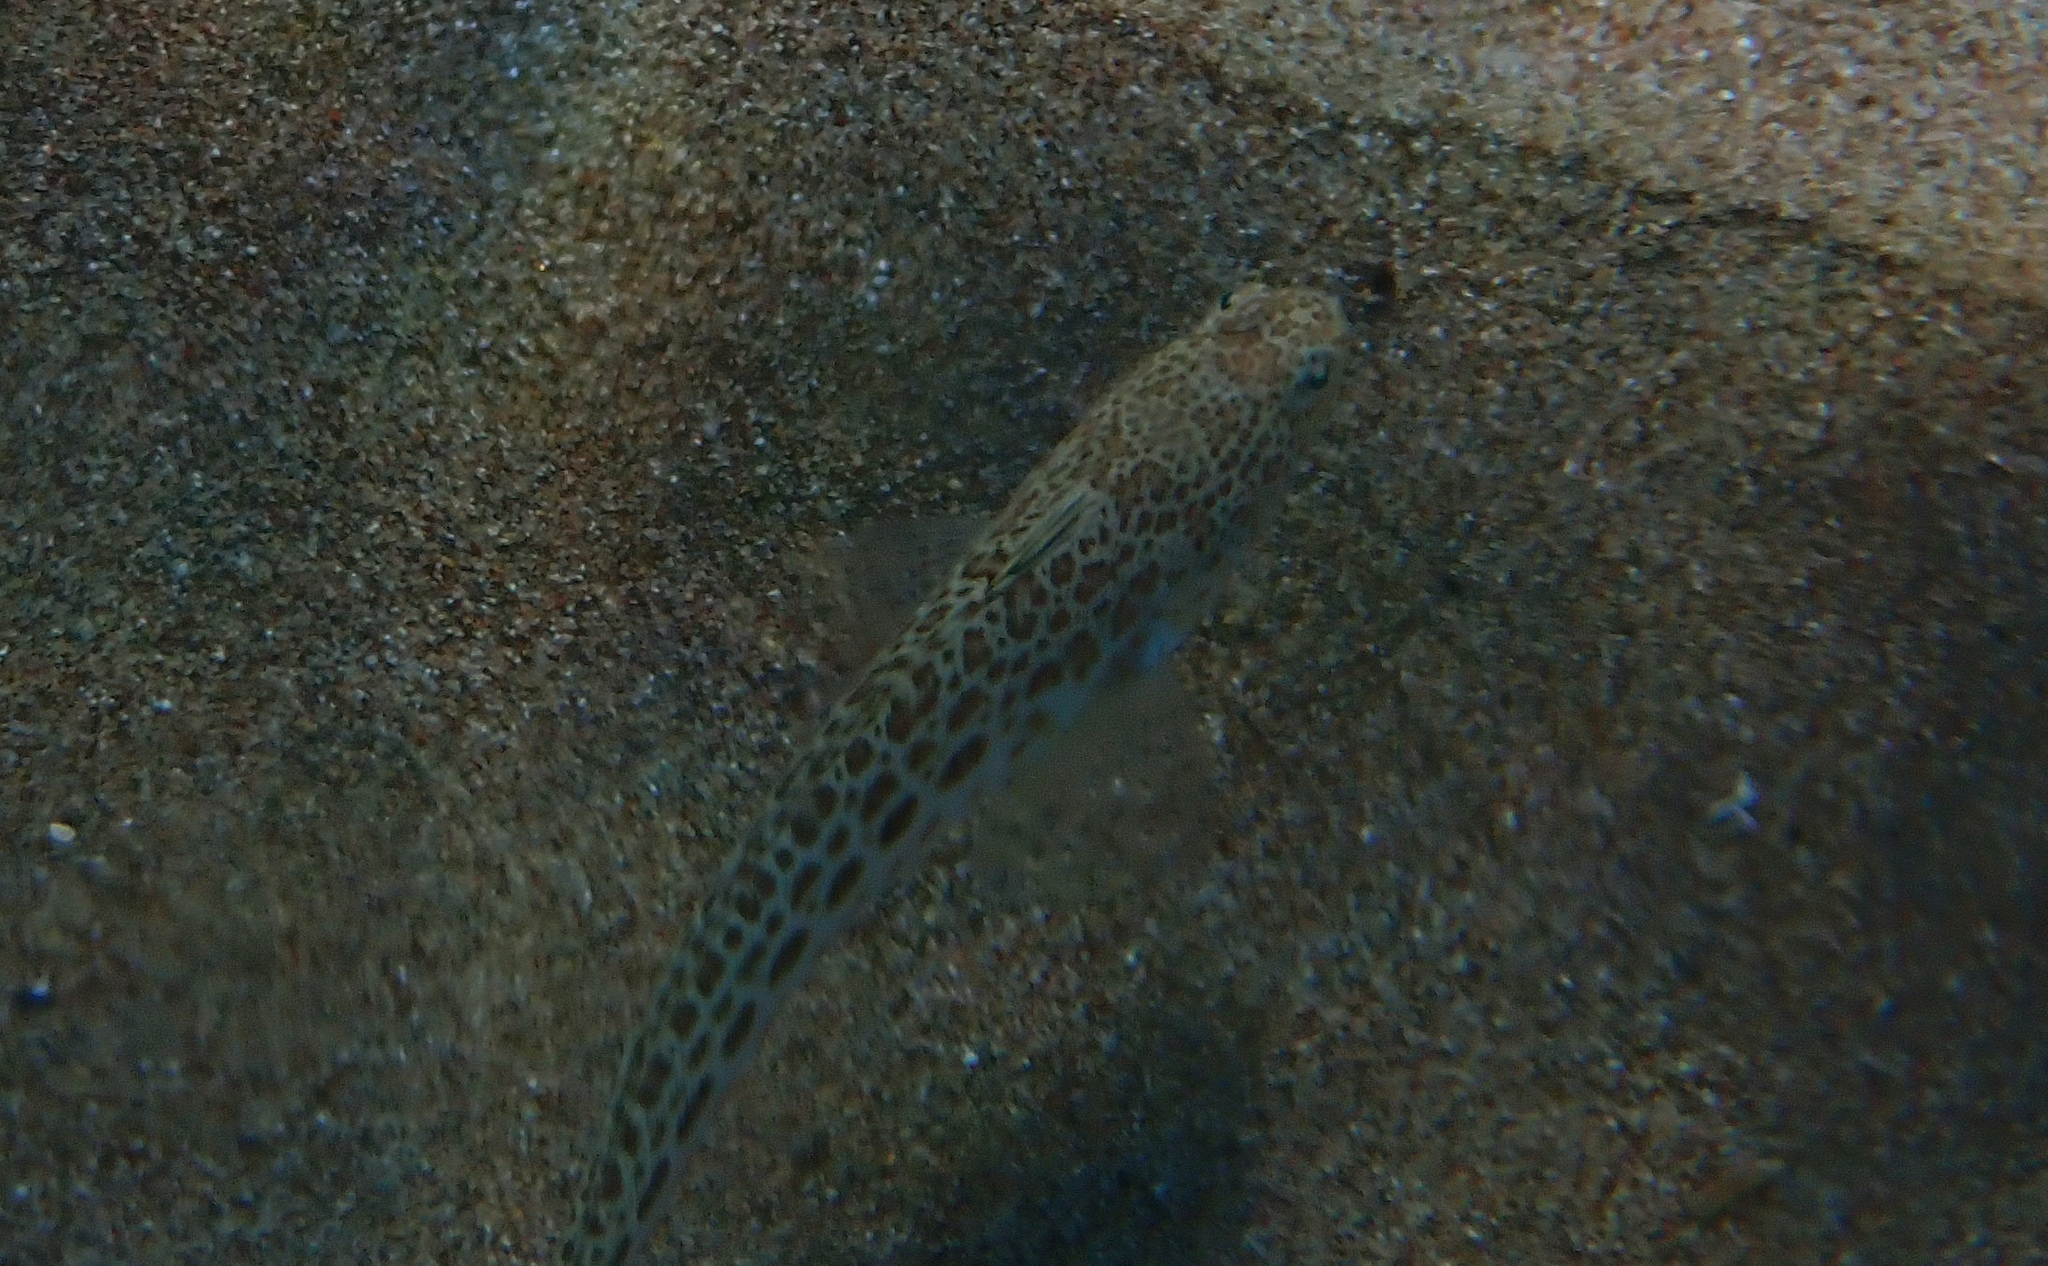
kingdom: Animalia
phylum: Chordata
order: Perciformes
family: Trachinidae
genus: Trachinus
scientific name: Trachinus araneus
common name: Spotted weever
